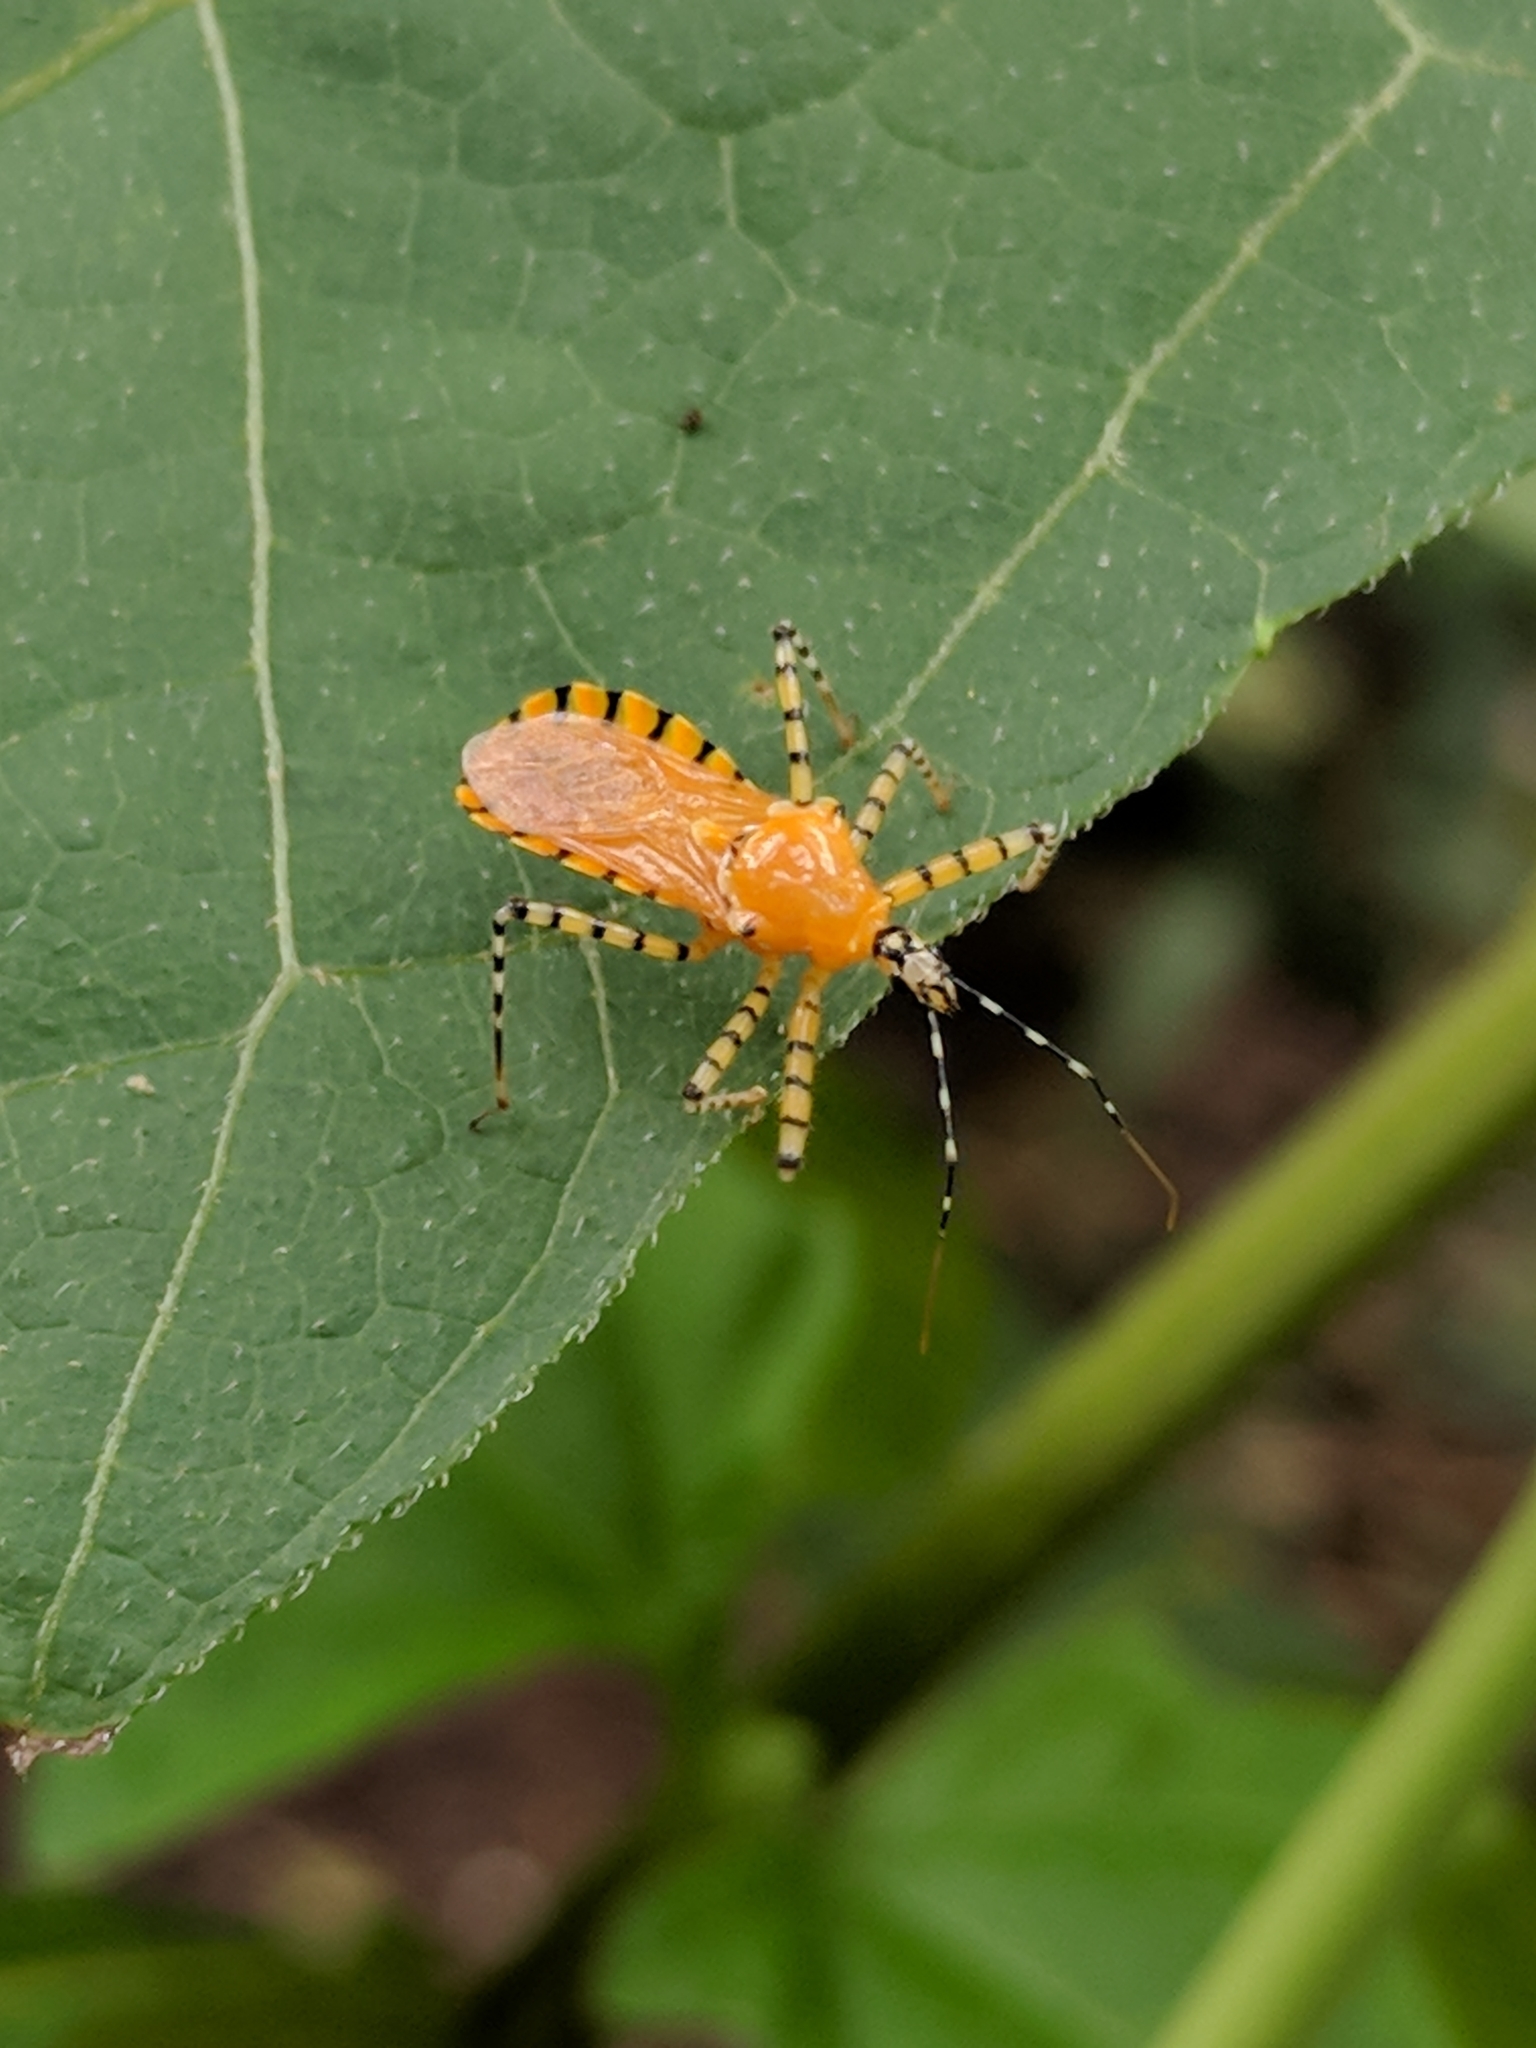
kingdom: Animalia
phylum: Arthropoda
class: Insecta
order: Hemiptera
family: Reduviidae
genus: Pselliopus
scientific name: Pselliopus barberi
